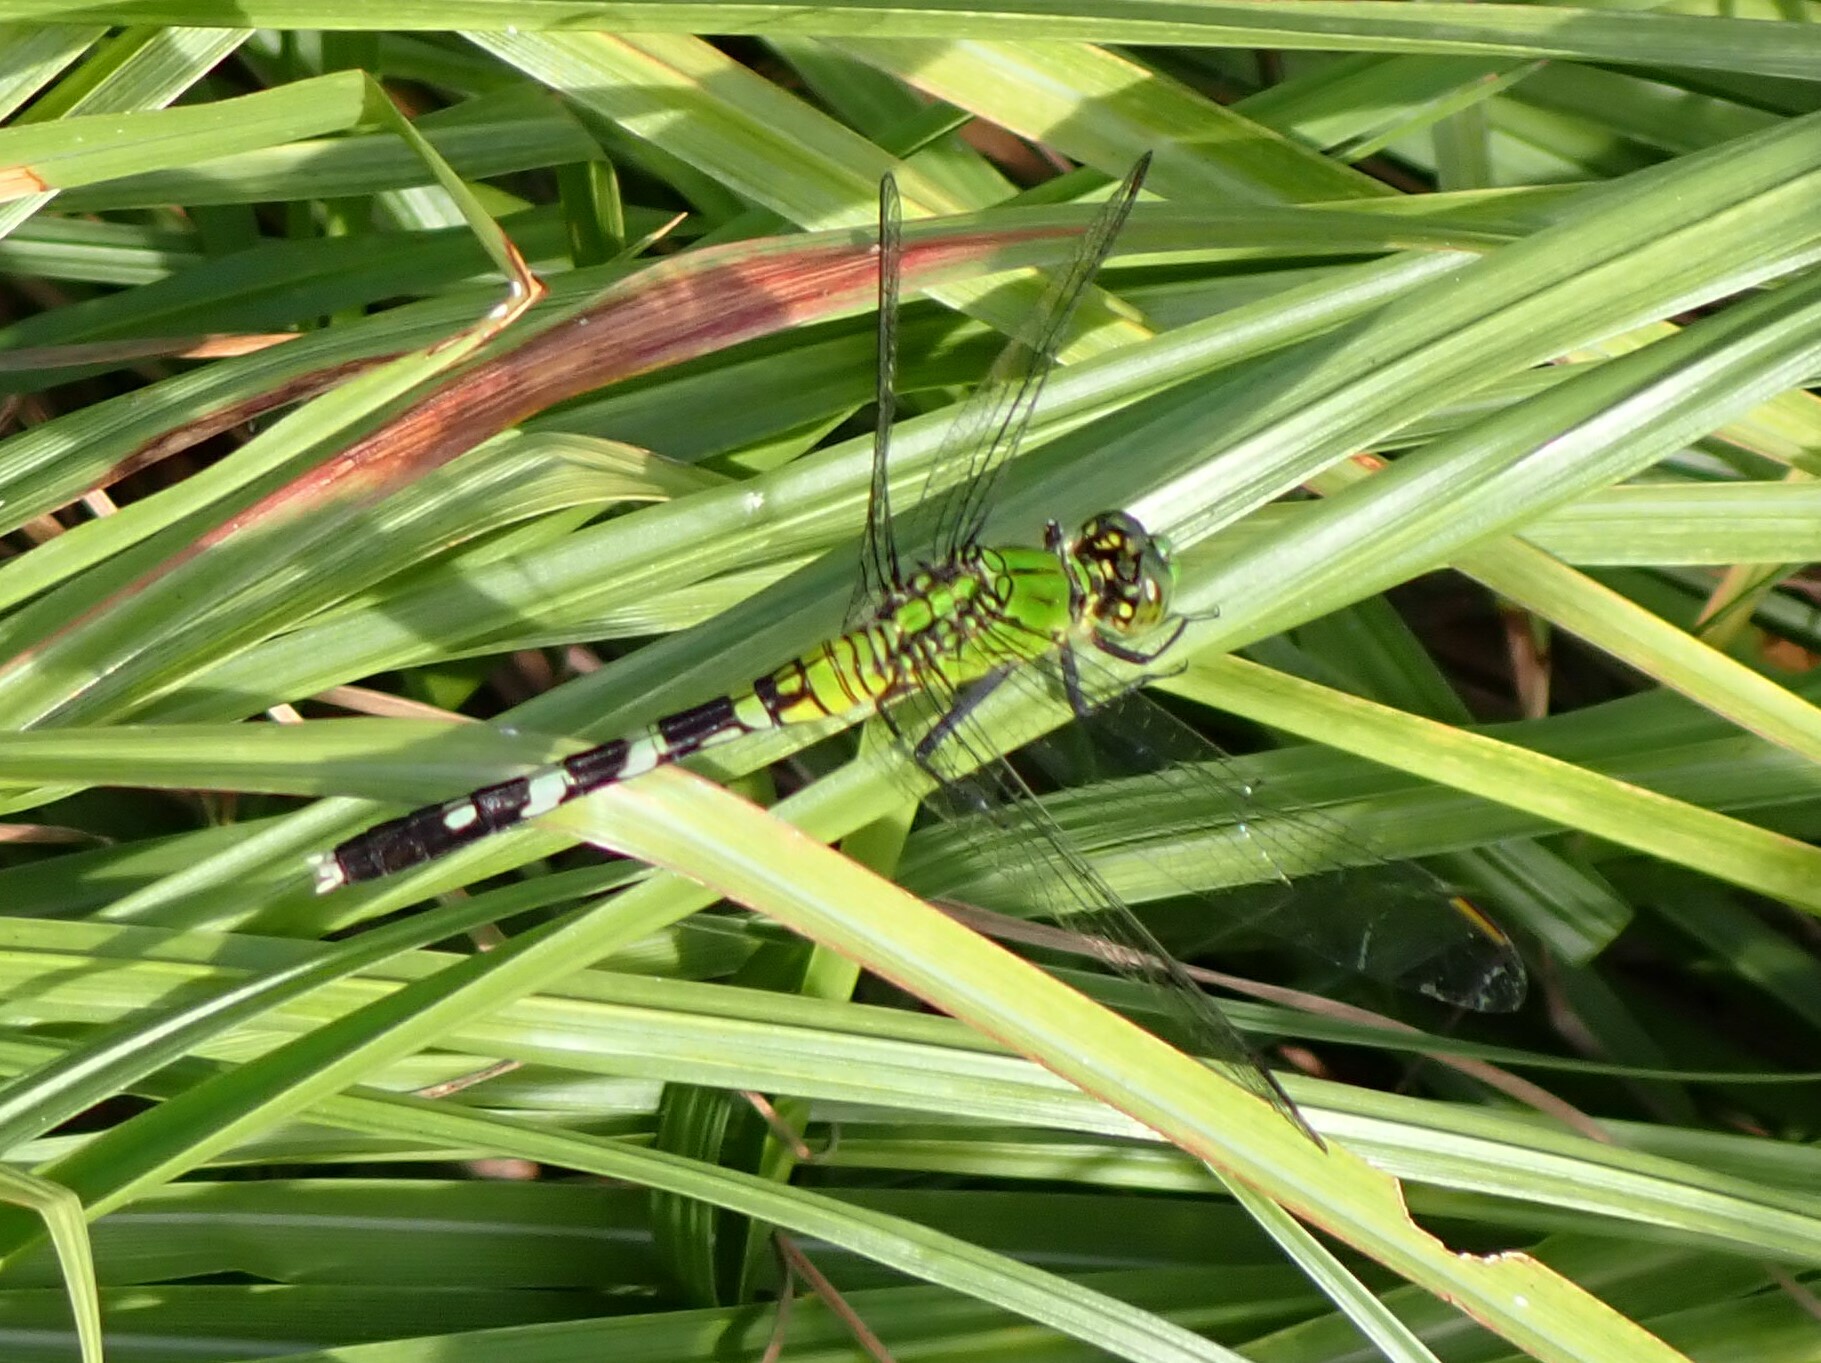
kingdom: Animalia
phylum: Arthropoda
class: Insecta
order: Odonata
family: Libellulidae
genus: Erythemis
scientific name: Erythemis simplicicollis
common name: Eastern pondhawk
